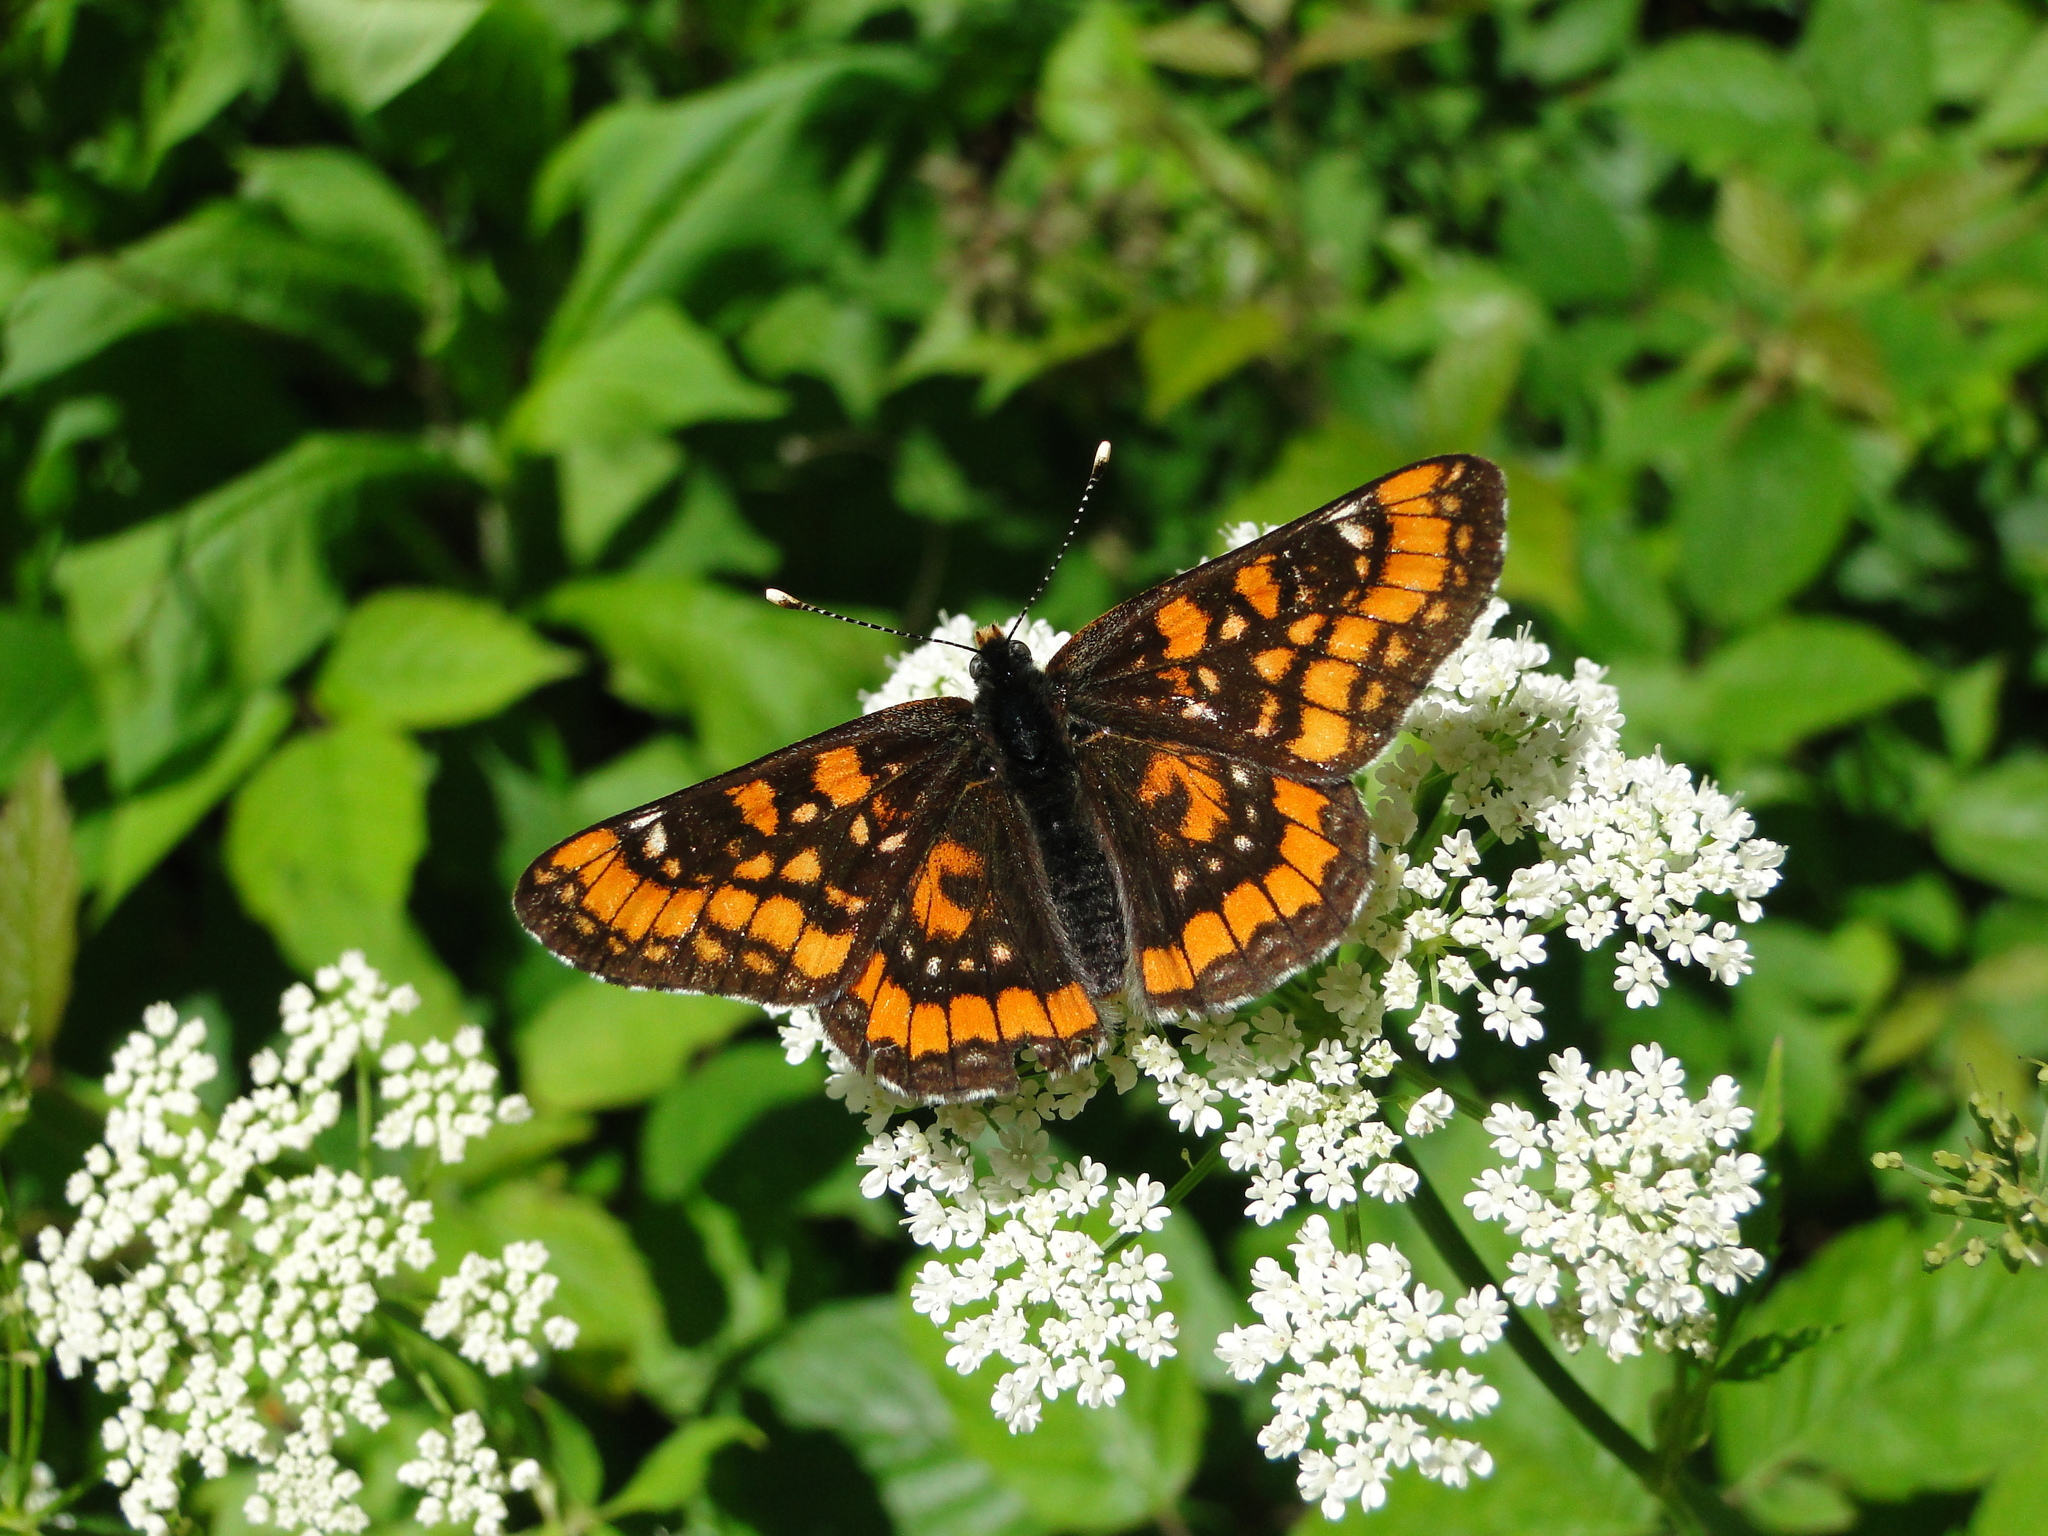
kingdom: Animalia
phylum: Arthropoda
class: Insecta
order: Lepidoptera
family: Nymphalidae
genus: Euphydryas
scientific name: Euphydryas maturna
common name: Scarce fritillary
